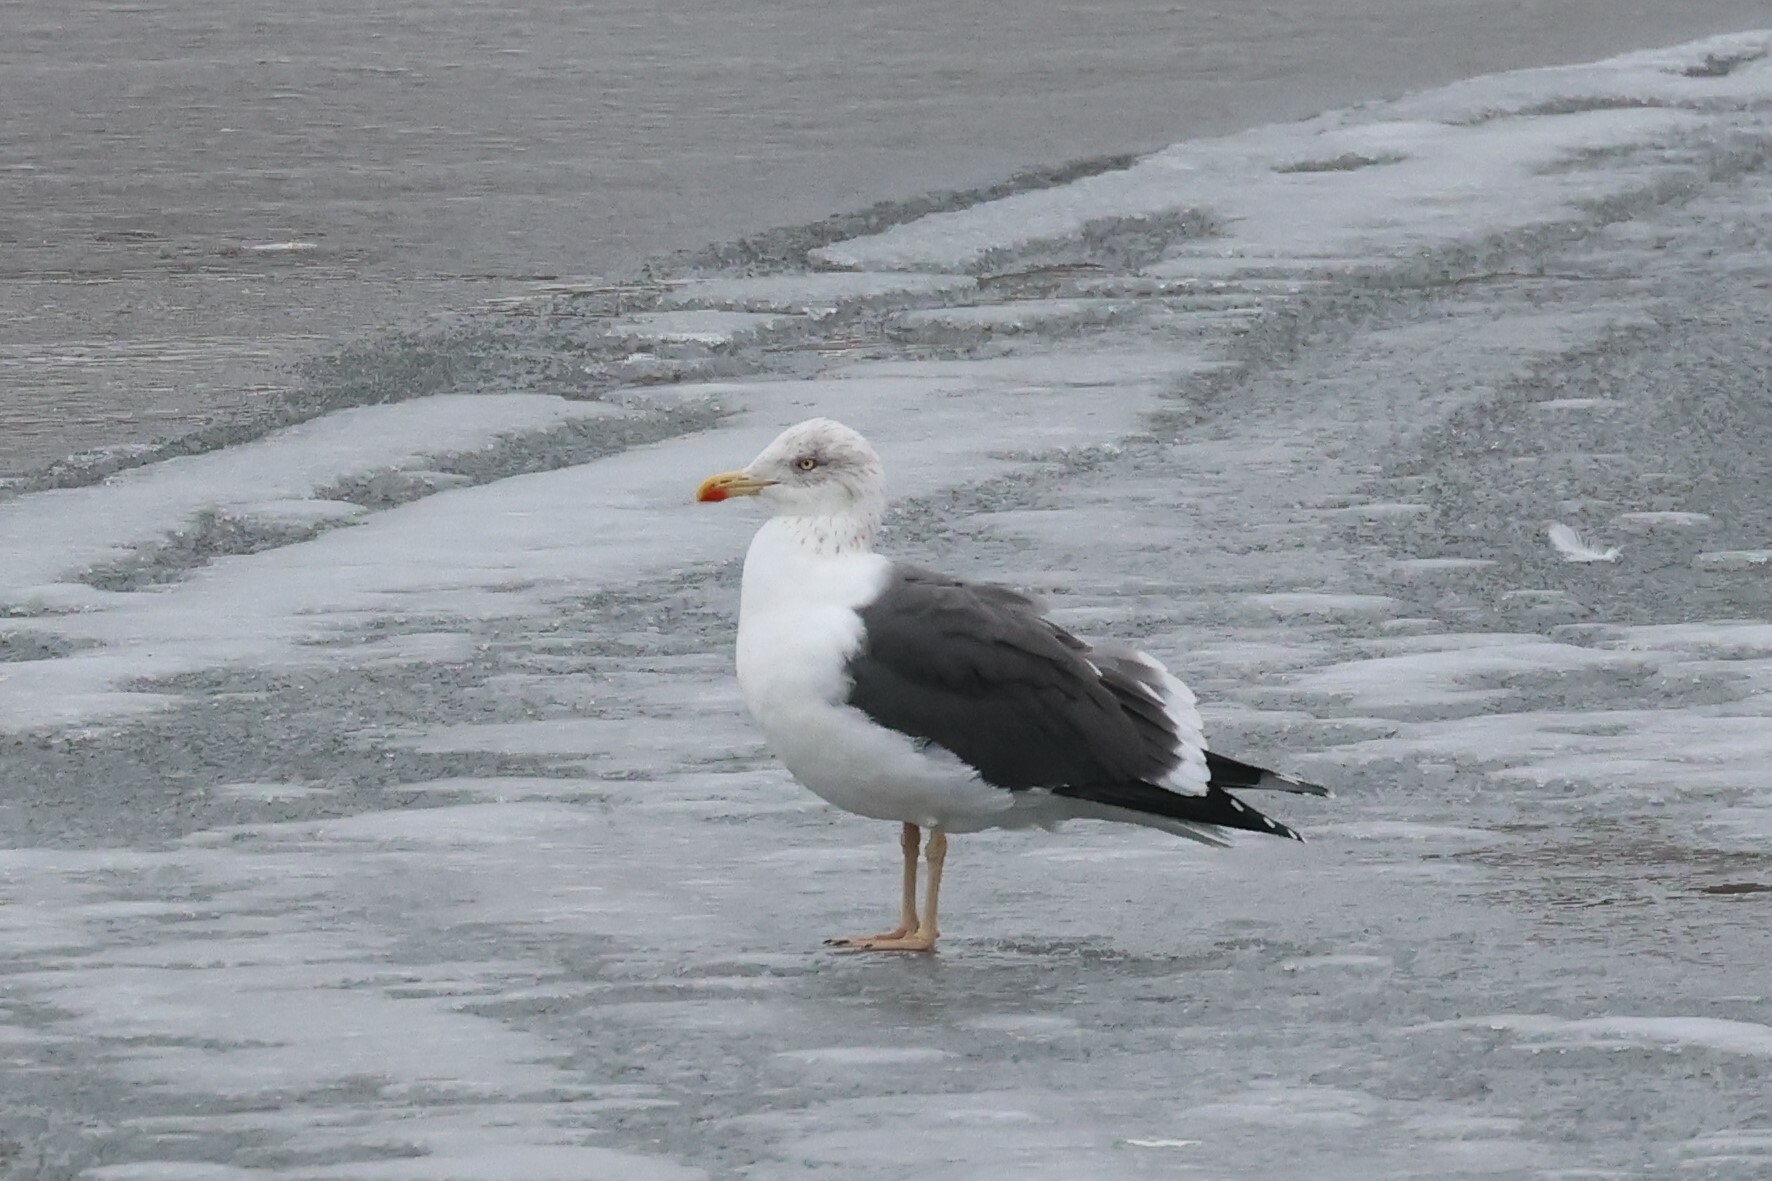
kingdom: Animalia
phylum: Chordata
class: Aves
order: Charadriiformes
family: Laridae
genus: Larus
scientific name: Larus fuscus
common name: Lesser black-backed gull
